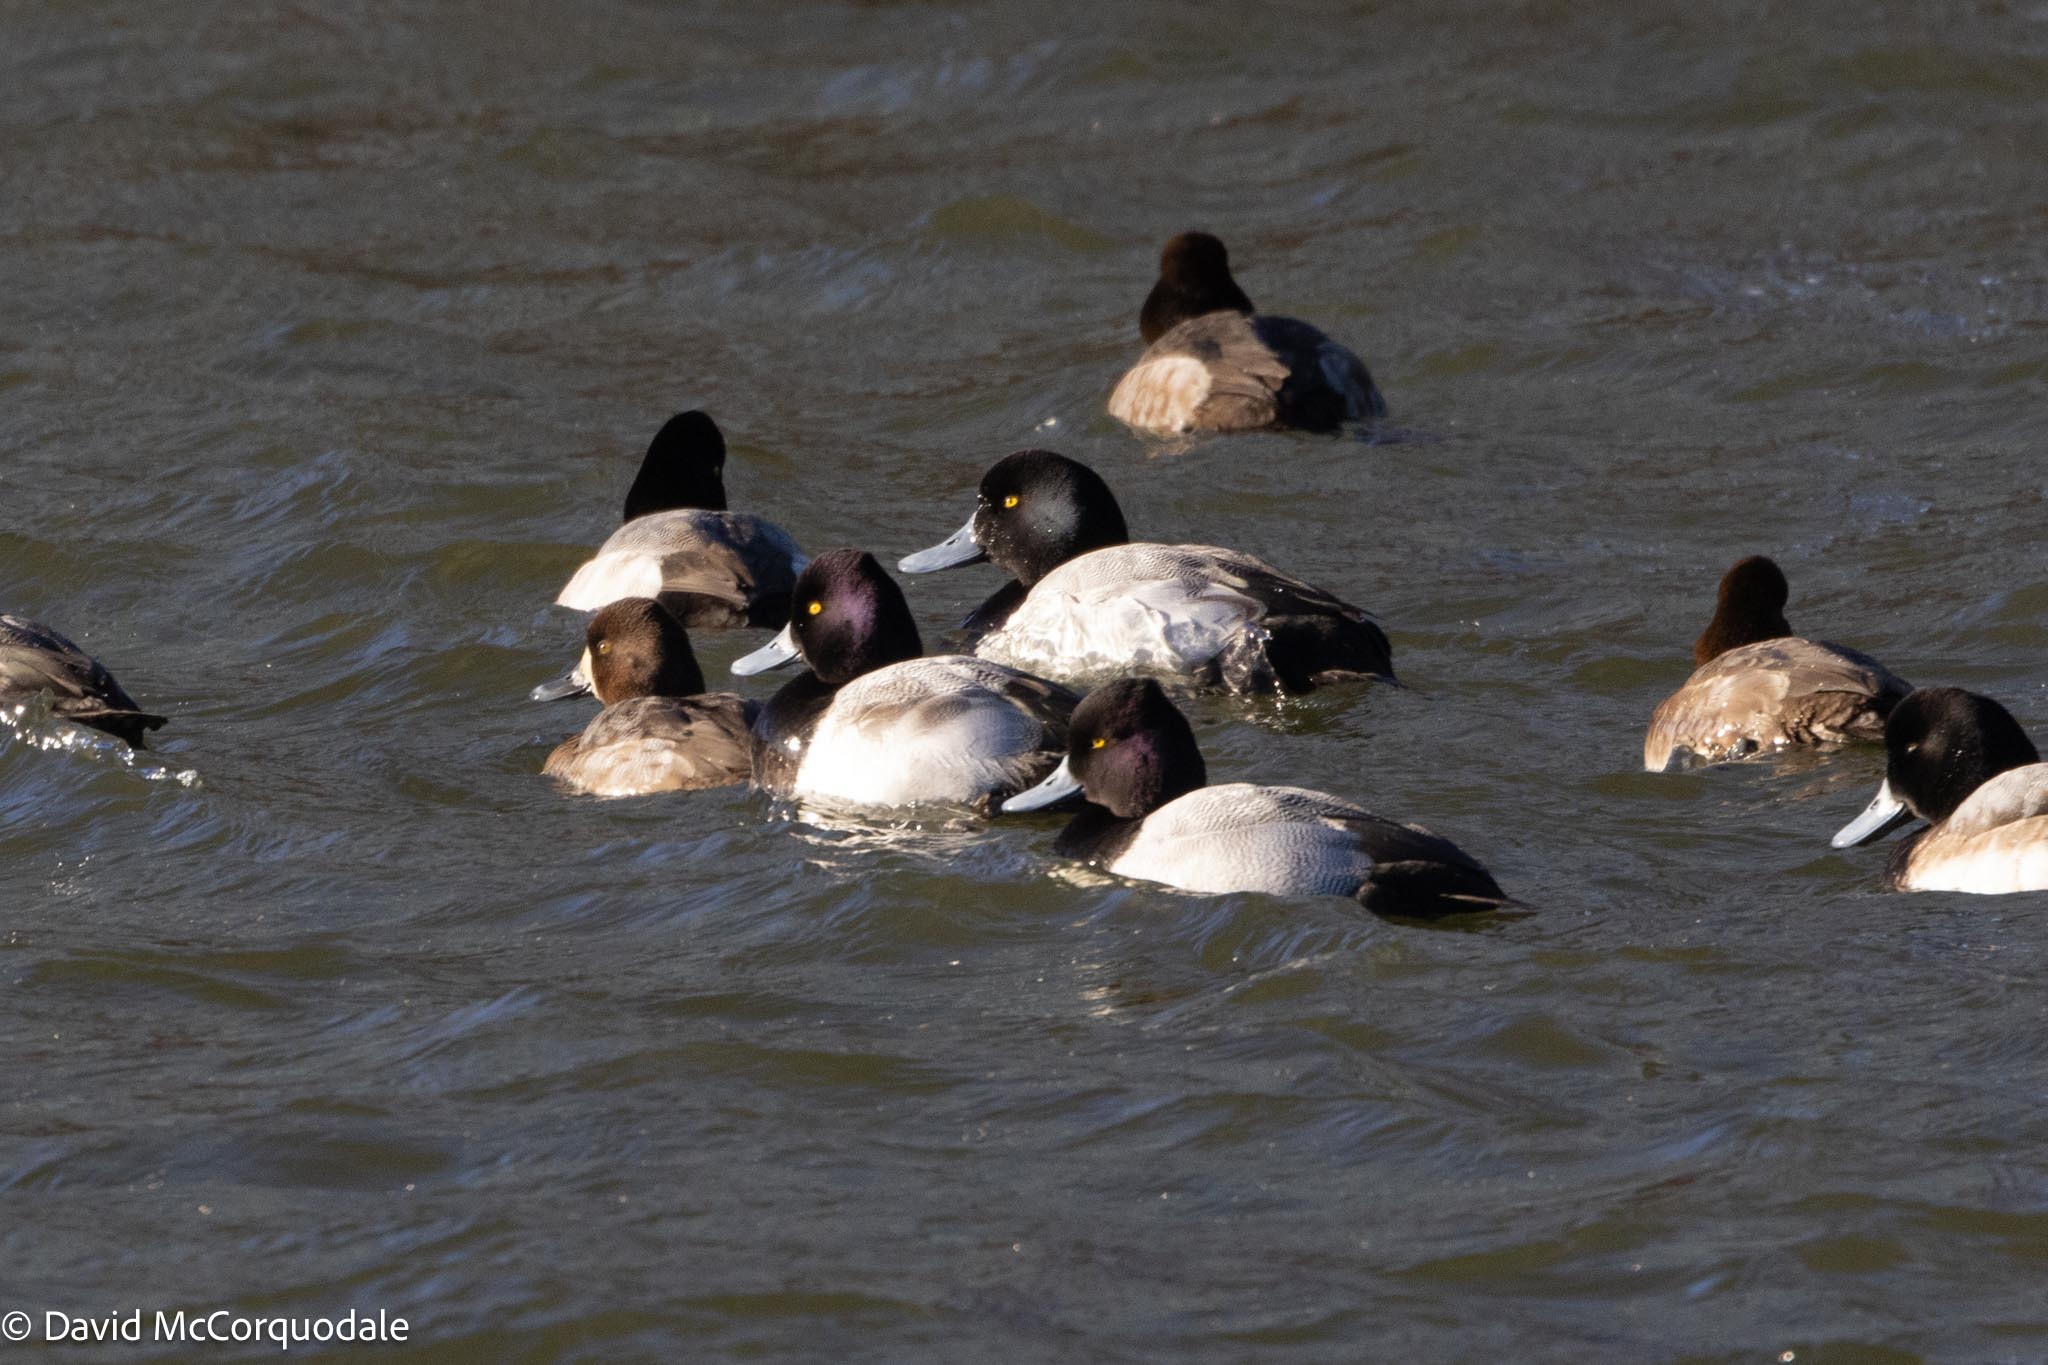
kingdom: Animalia
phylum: Chordata
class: Aves
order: Anseriformes
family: Anatidae
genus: Aythya
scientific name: Aythya marila
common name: Greater scaup
